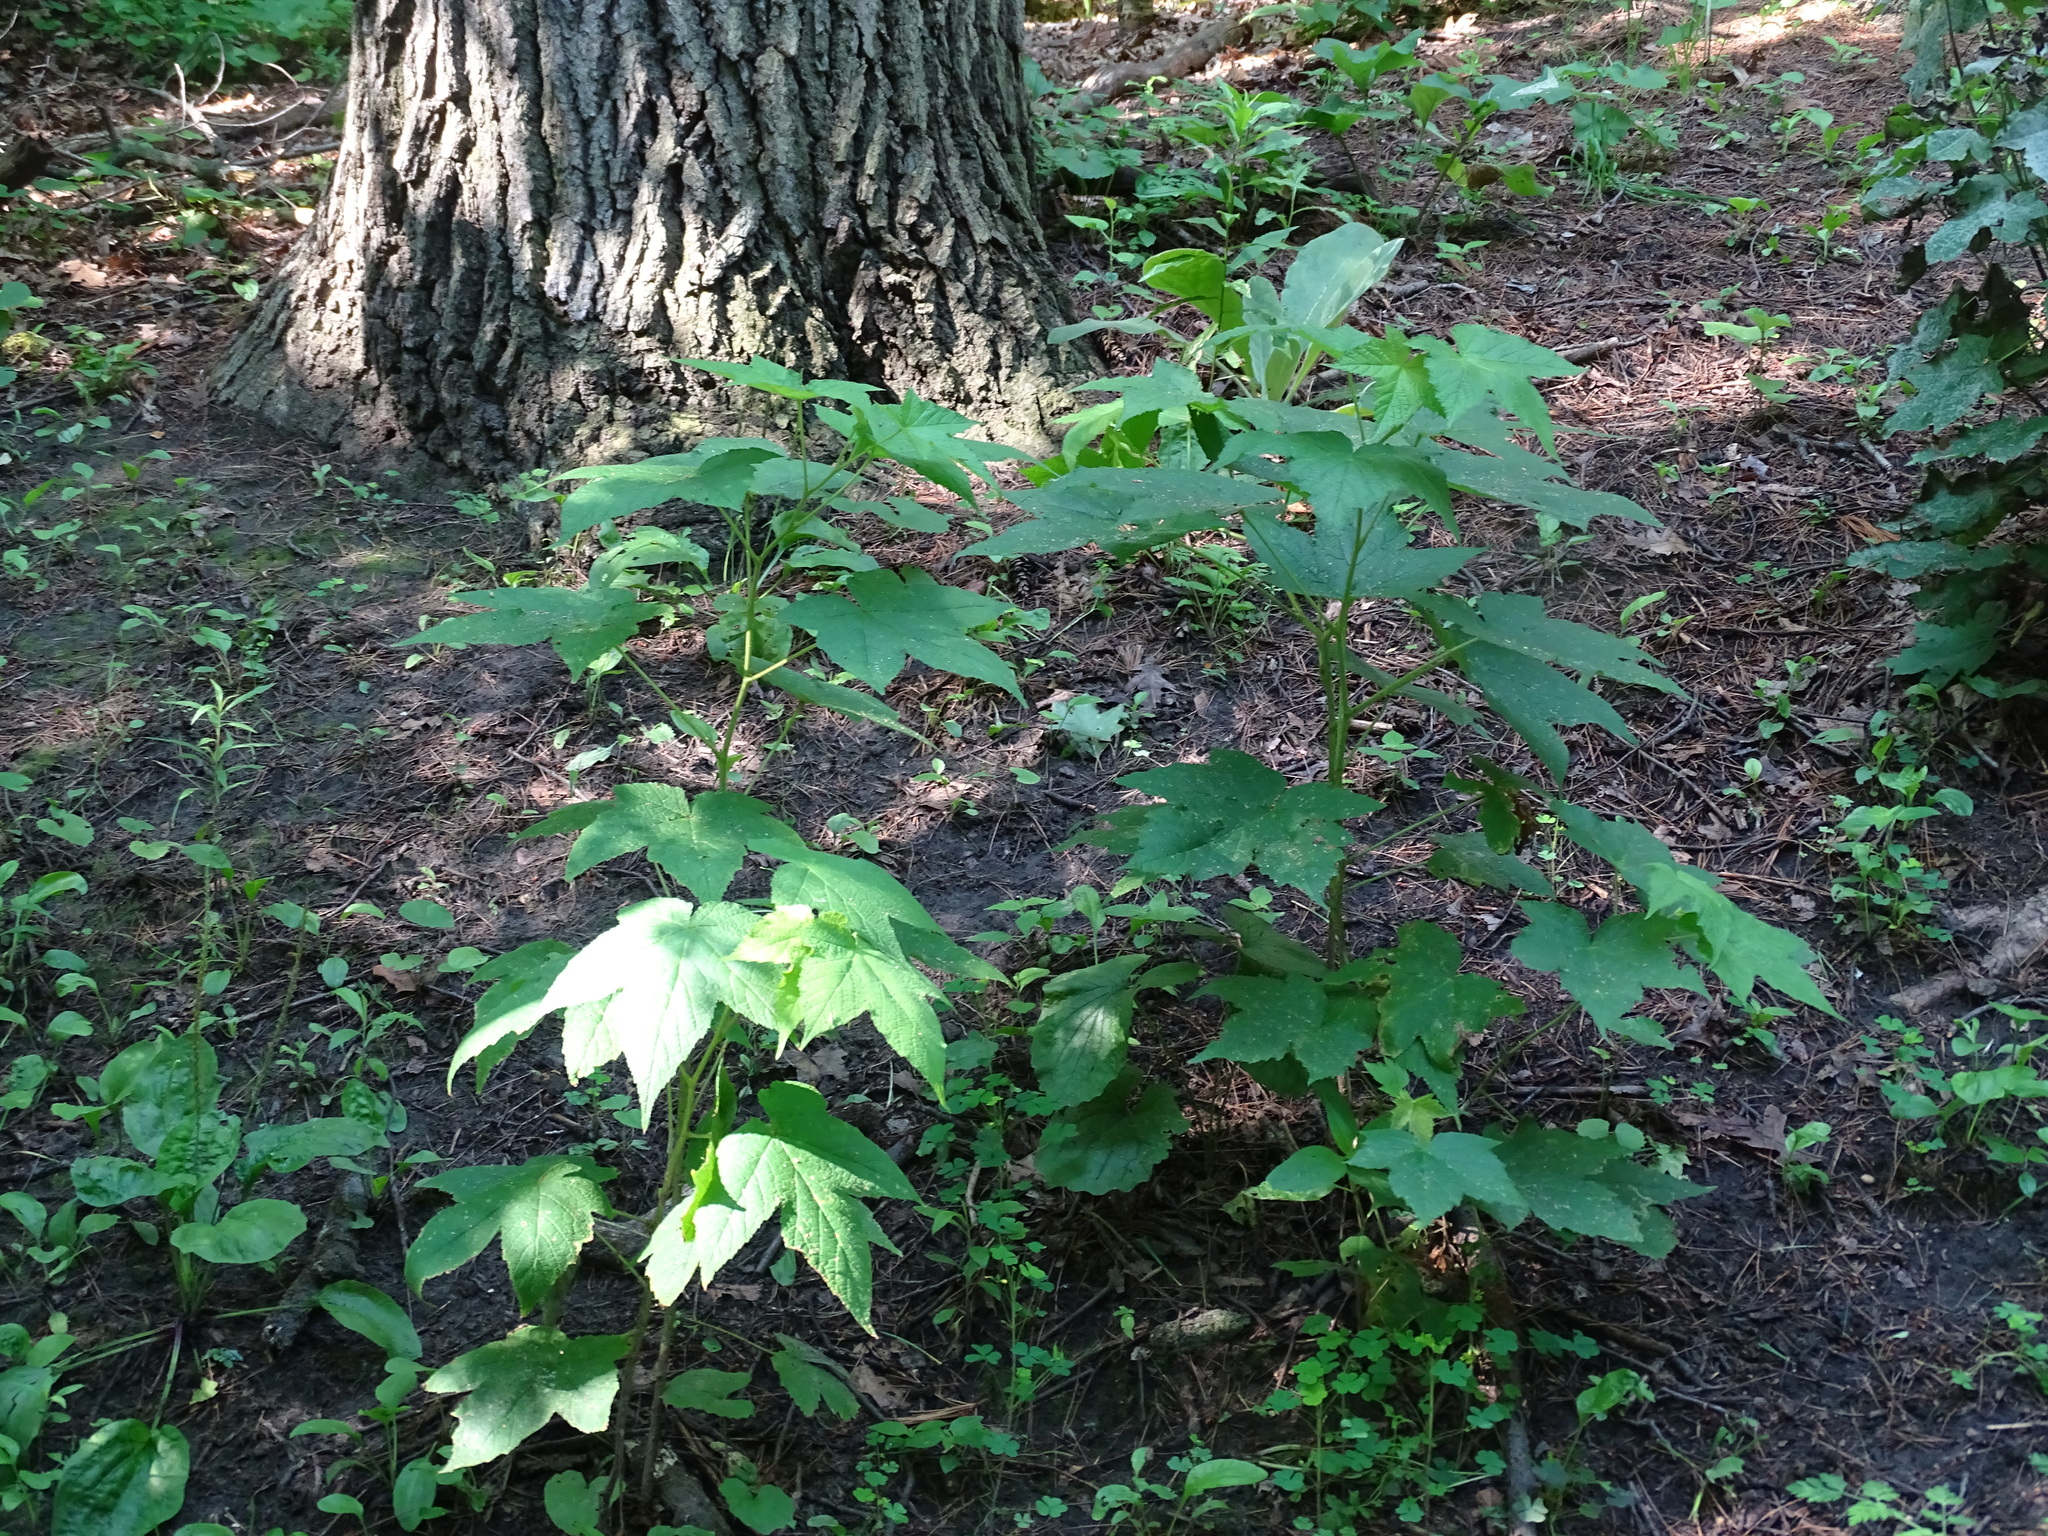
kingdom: Plantae
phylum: Tracheophyta
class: Magnoliopsida
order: Rosales
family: Rosaceae
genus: Rubus
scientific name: Rubus odoratus
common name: Purple-flowered raspberry
